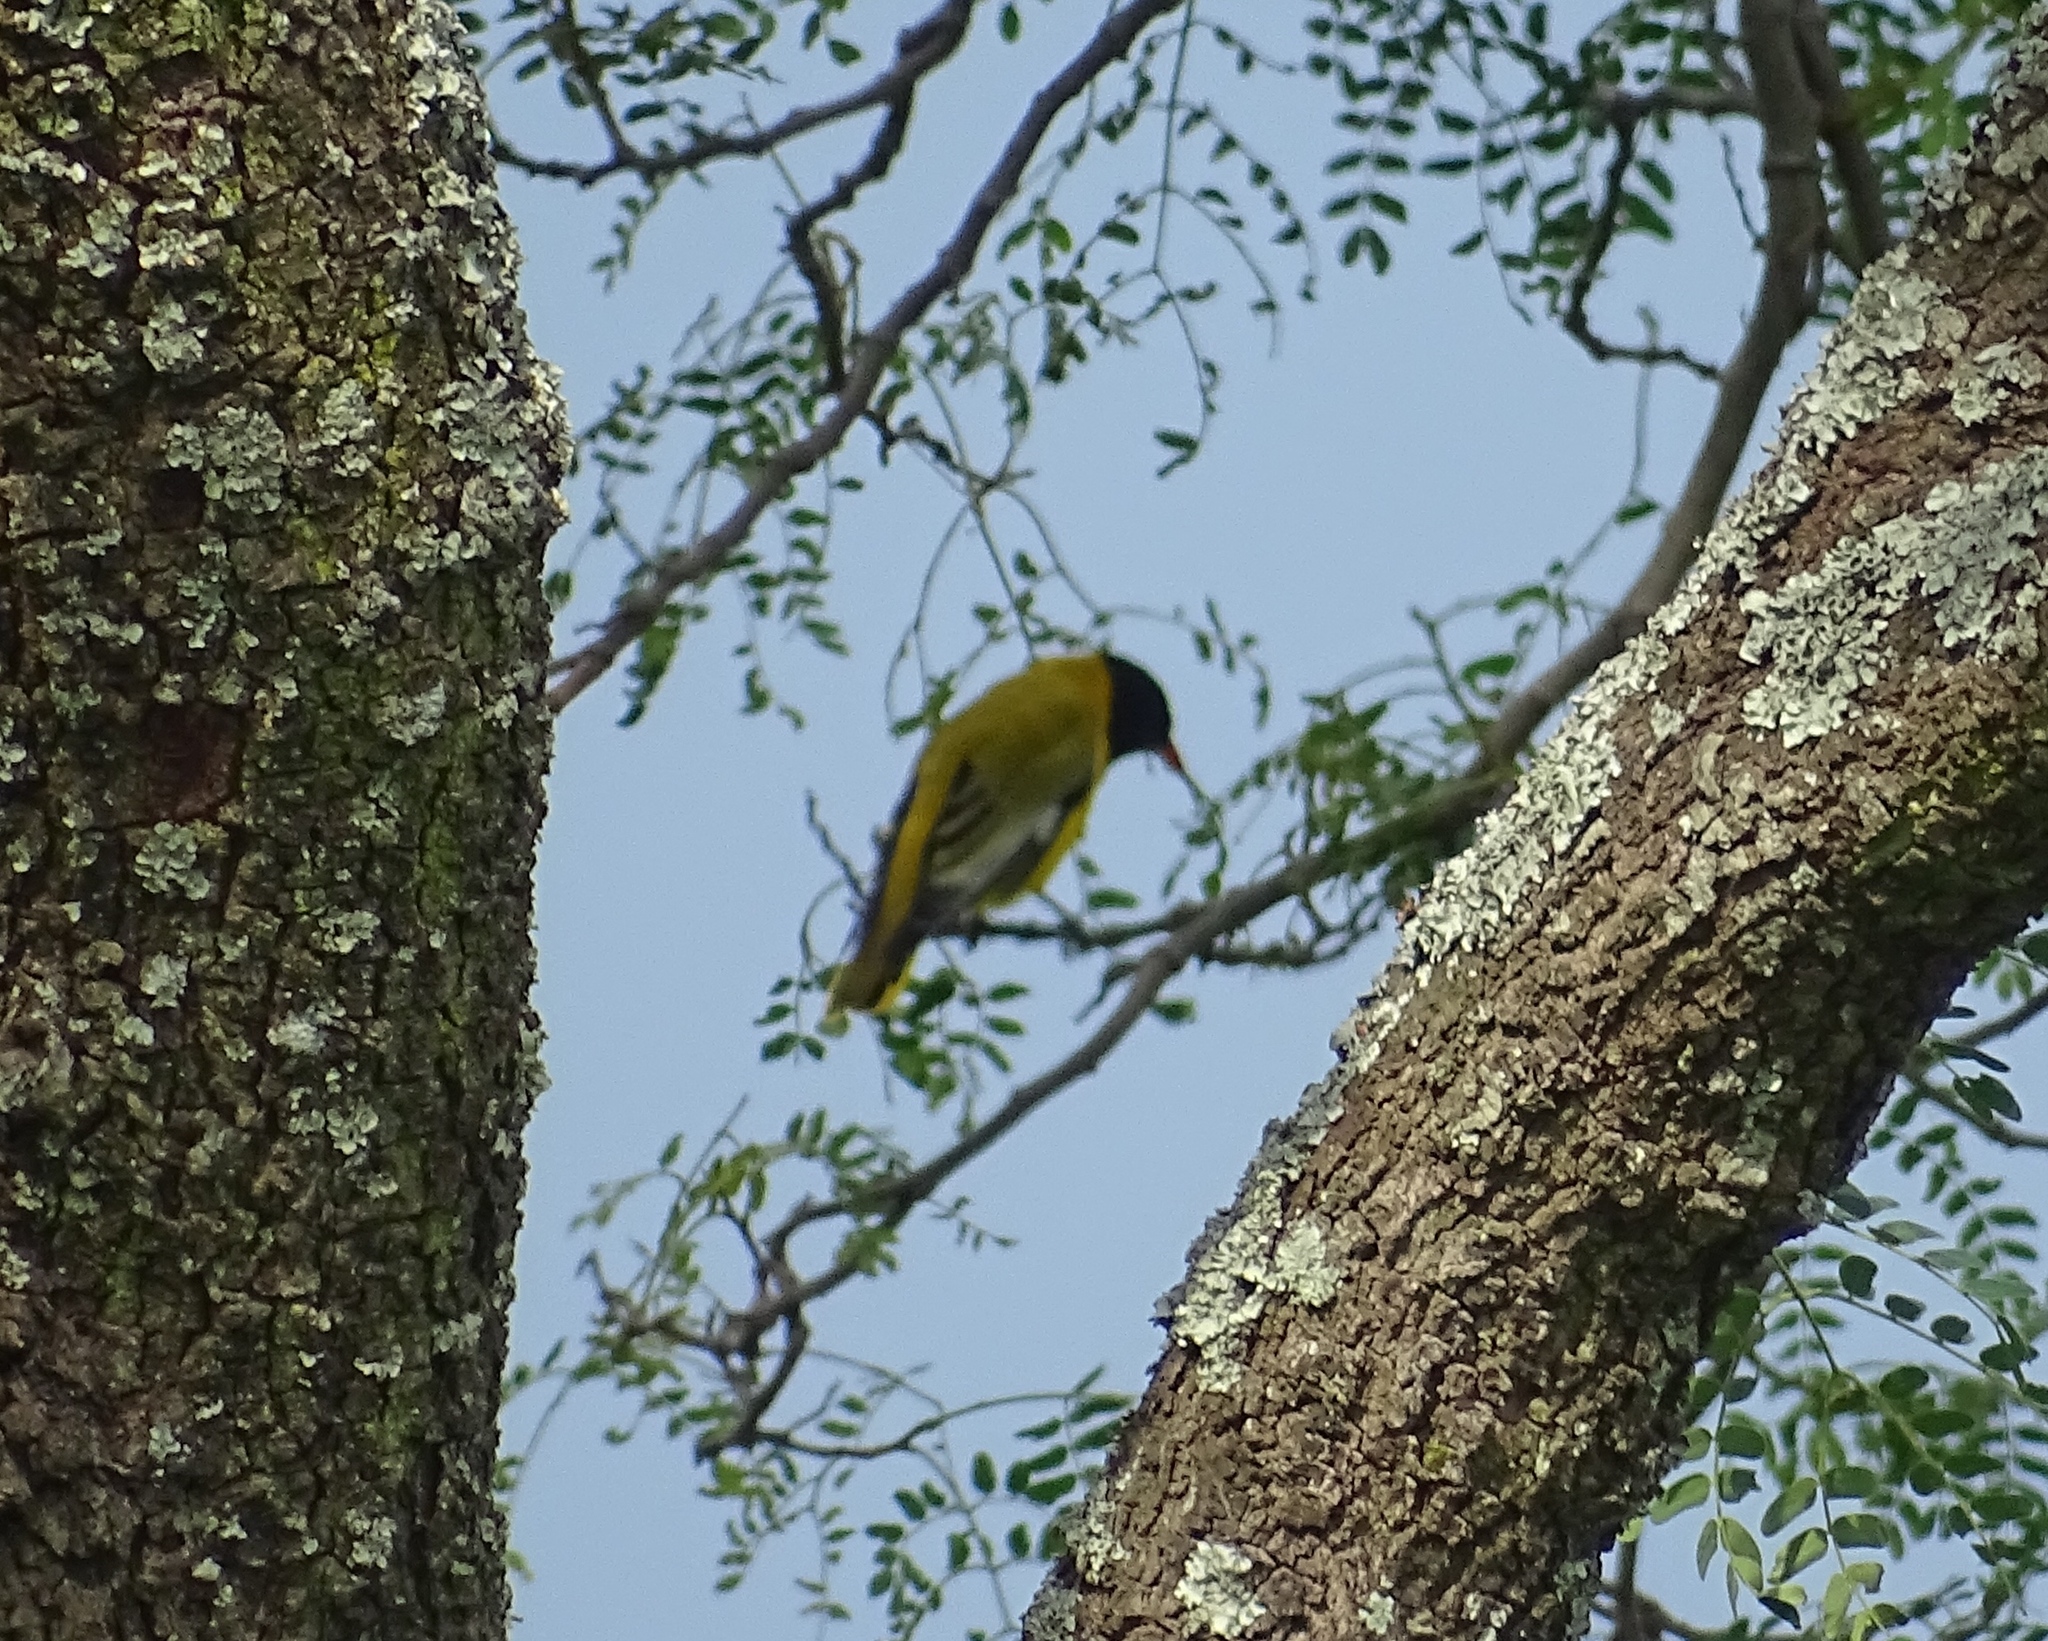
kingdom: Animalia
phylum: Chordata
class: Aves
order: Passeriformes
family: Oriolidae
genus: Oriolus
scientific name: Oriolus larvatus
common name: Black-headed oriole
